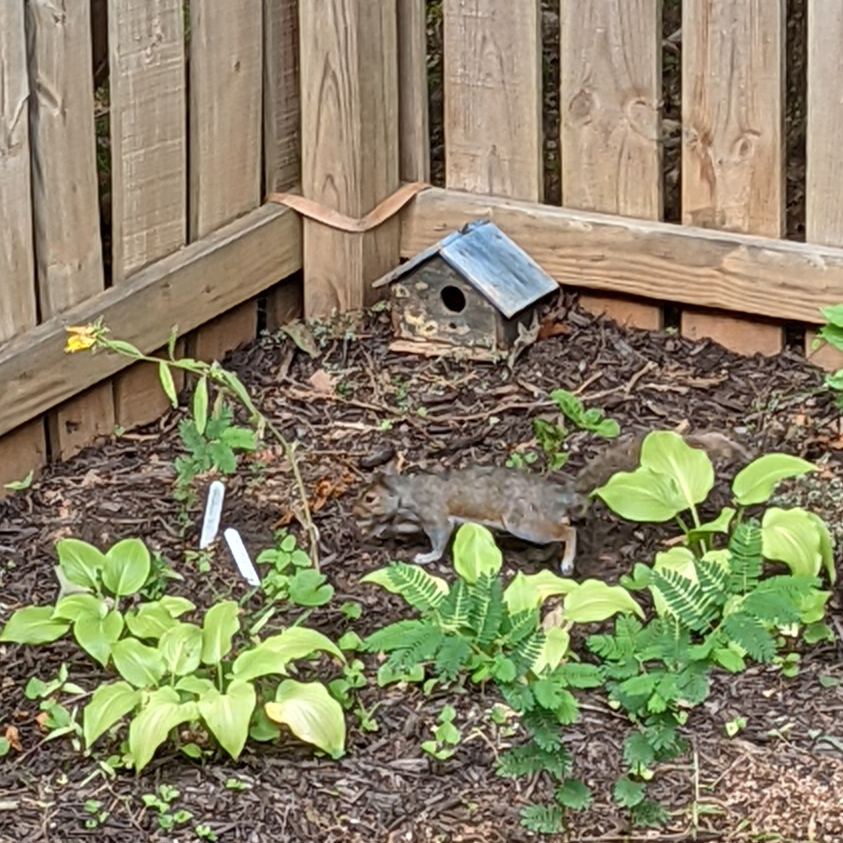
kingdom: Animalia
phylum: Chordata
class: Mammalia
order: Rodentia
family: Sciuridae
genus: Sciurus
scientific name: Sciurus carolinensis
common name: Eastern gray squirrel
